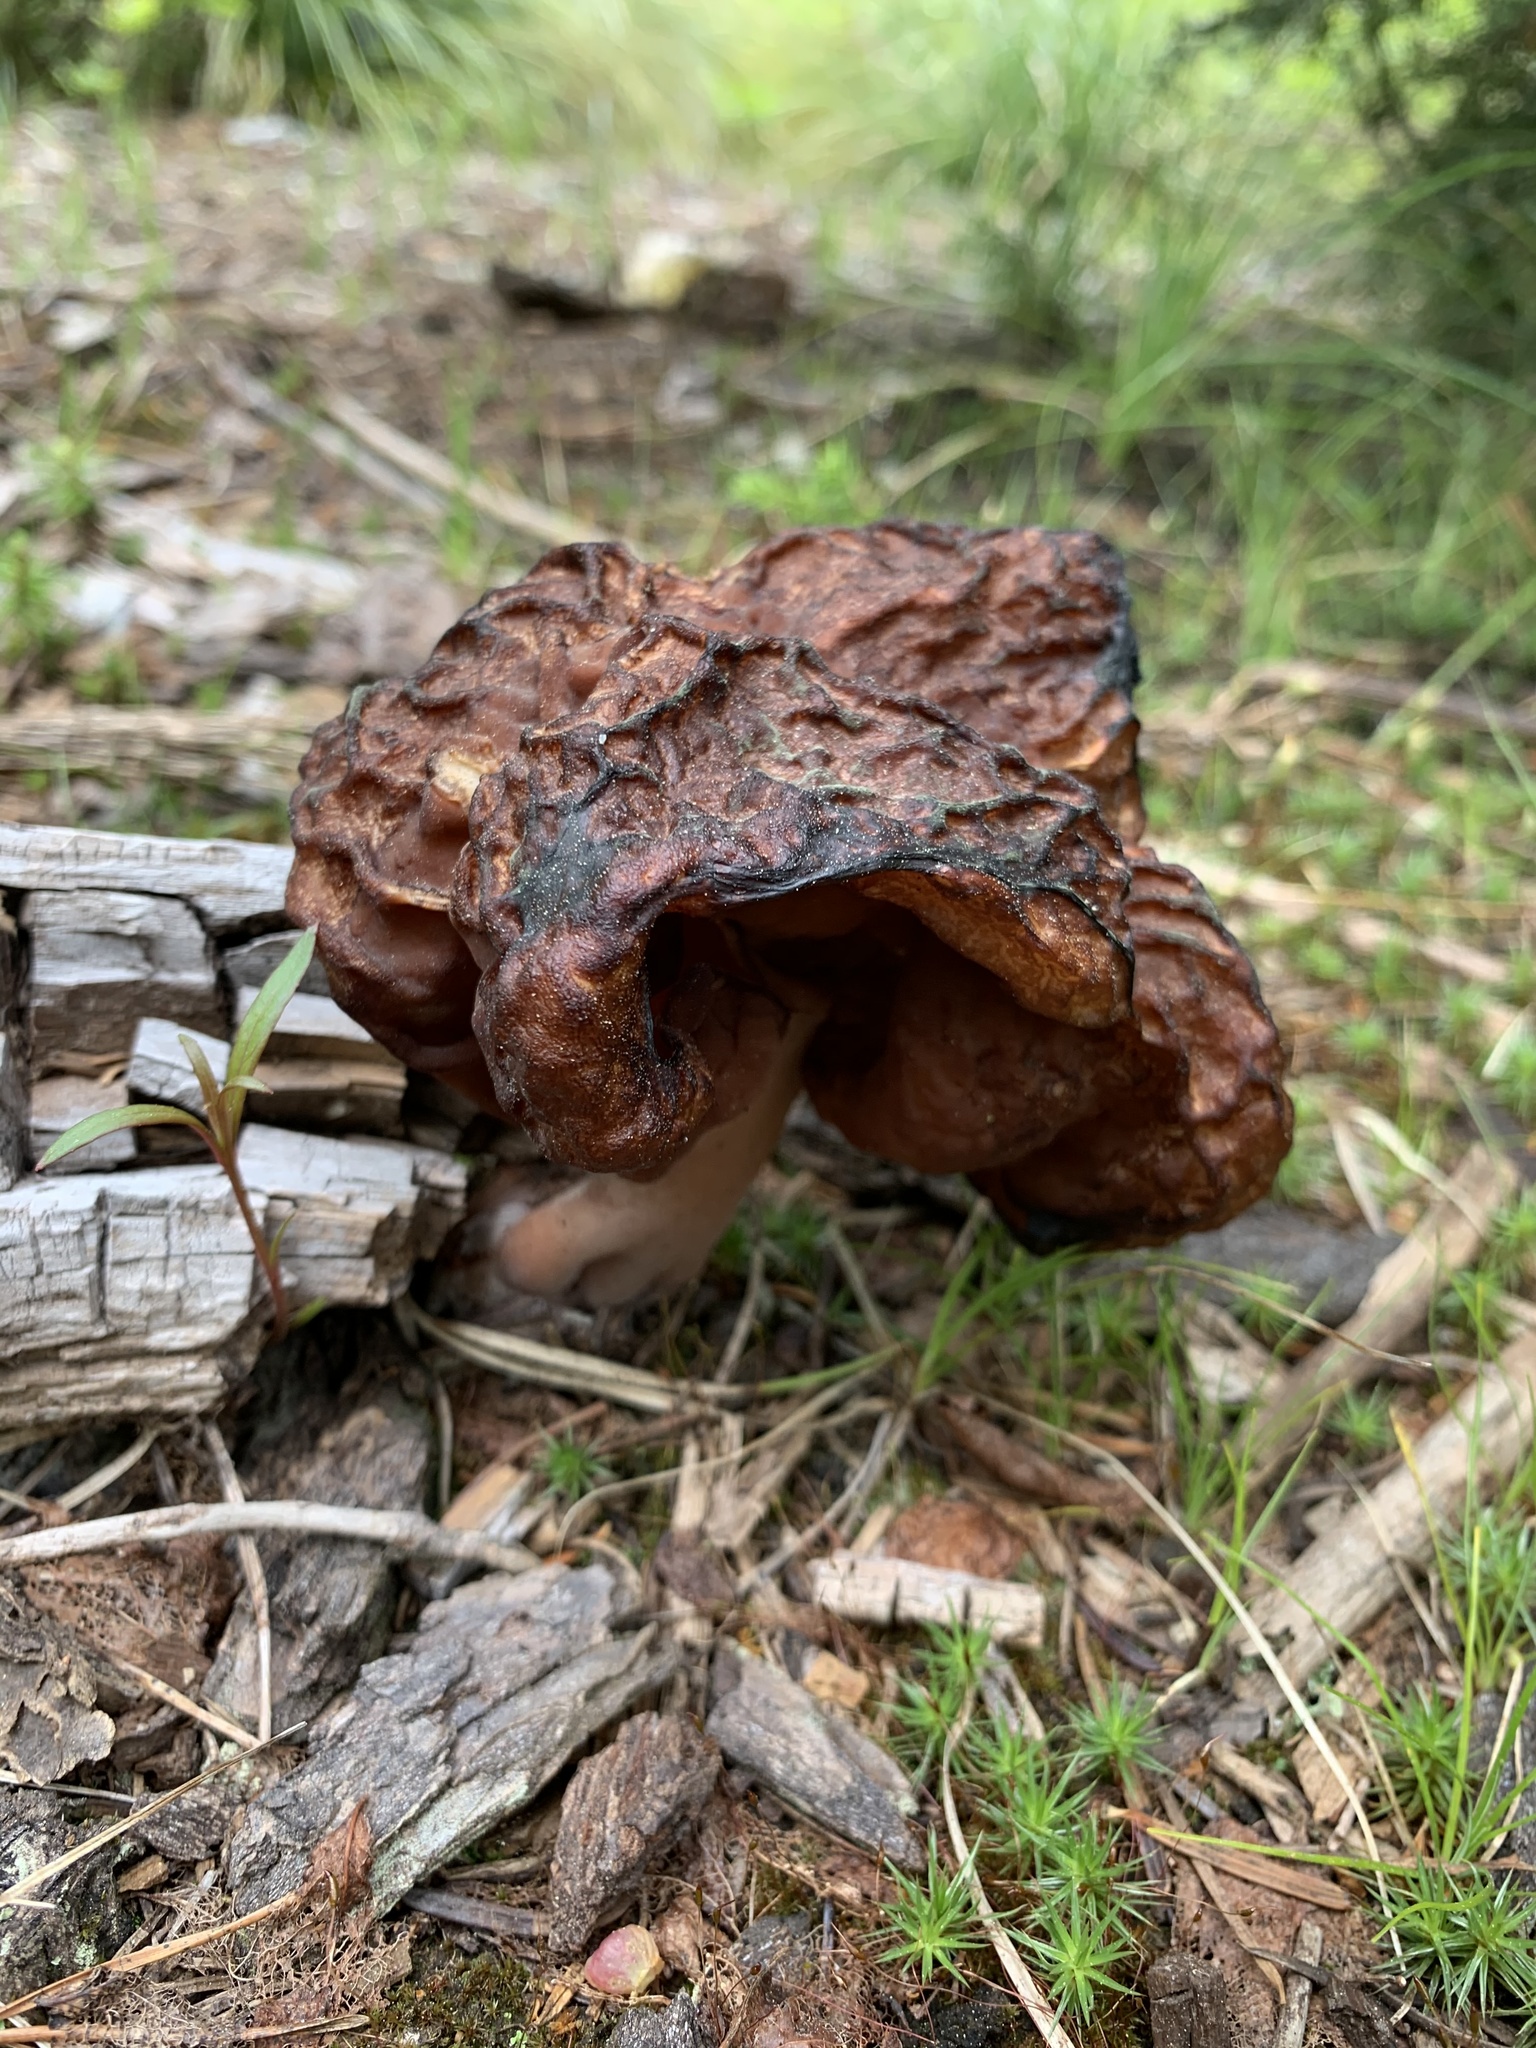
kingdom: Fungi
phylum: Ascomycota
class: Pezizomycetes
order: Pezizales
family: Discinaceae
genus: Gyromitra
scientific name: Gyromitra esculenta
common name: False morel
